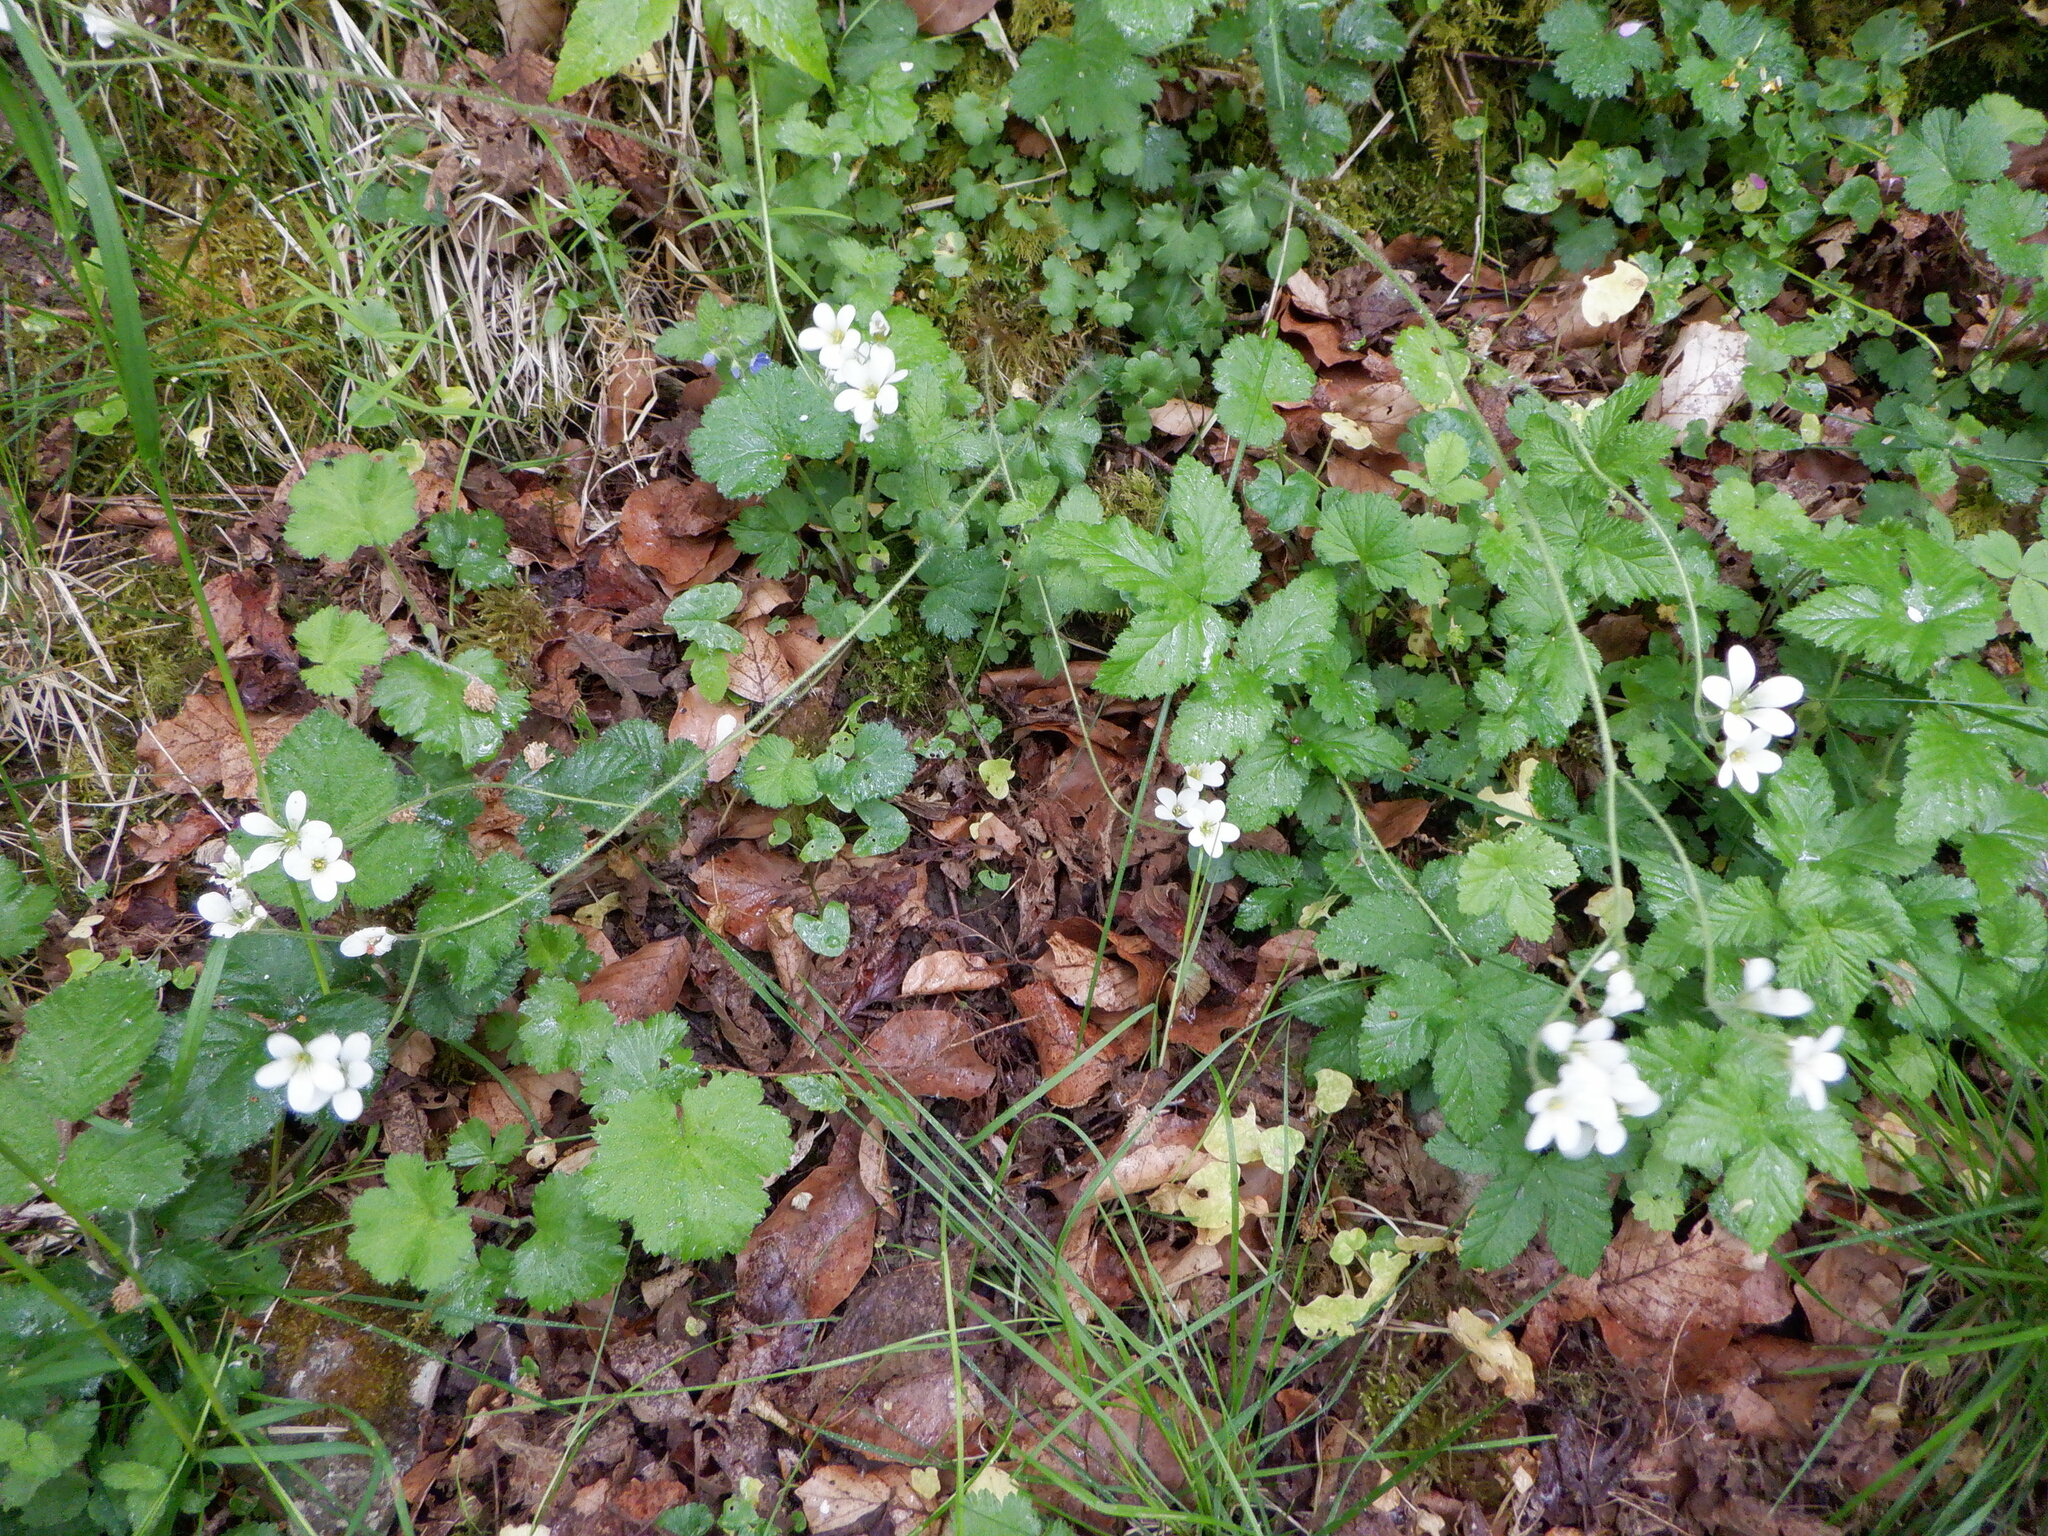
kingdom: Plantae
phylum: Tracheophyta
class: Magnoliopsida
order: Saxifragales
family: Saxifragaceae
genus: Saxifraga
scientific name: Saxifraga granulata
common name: Meadow saxifrage
